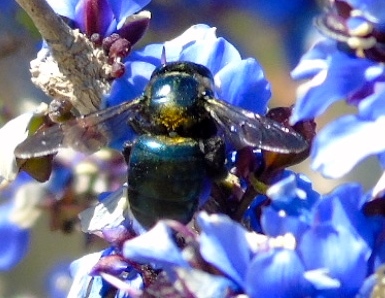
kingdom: Animalia
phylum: Arthropoda
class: Insecta
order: Hymenoptera
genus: Schonnherria
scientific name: Schonnherria
